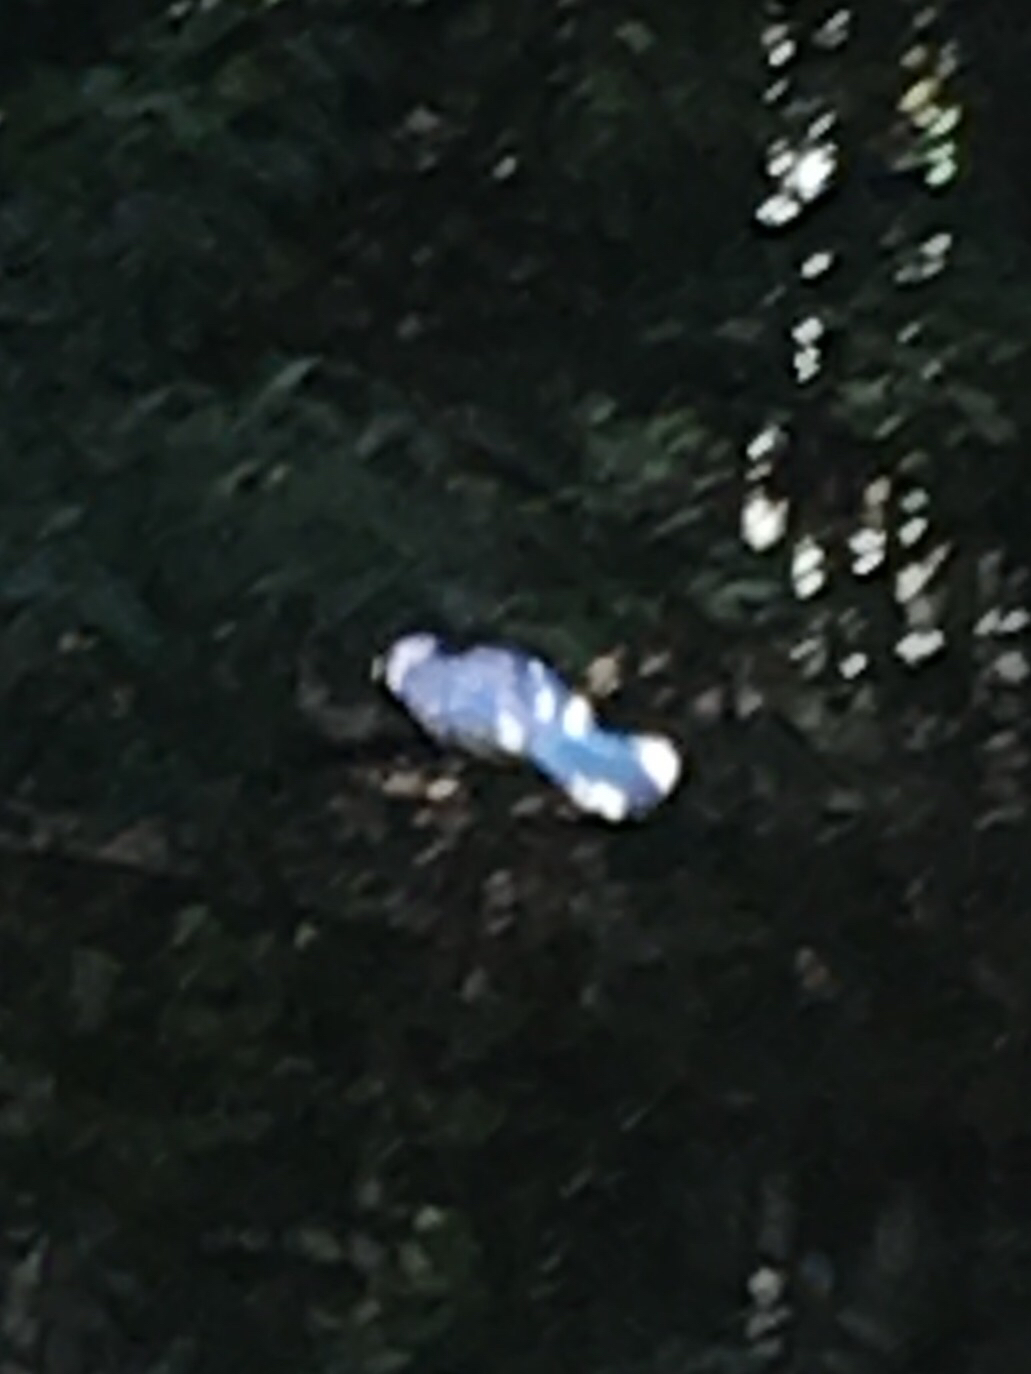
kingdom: Animalia
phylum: Chordata
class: Aves
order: Passeriformes
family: Corvidae
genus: Cyanocitta
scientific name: Cyanocitta cristata
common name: Blue jay
